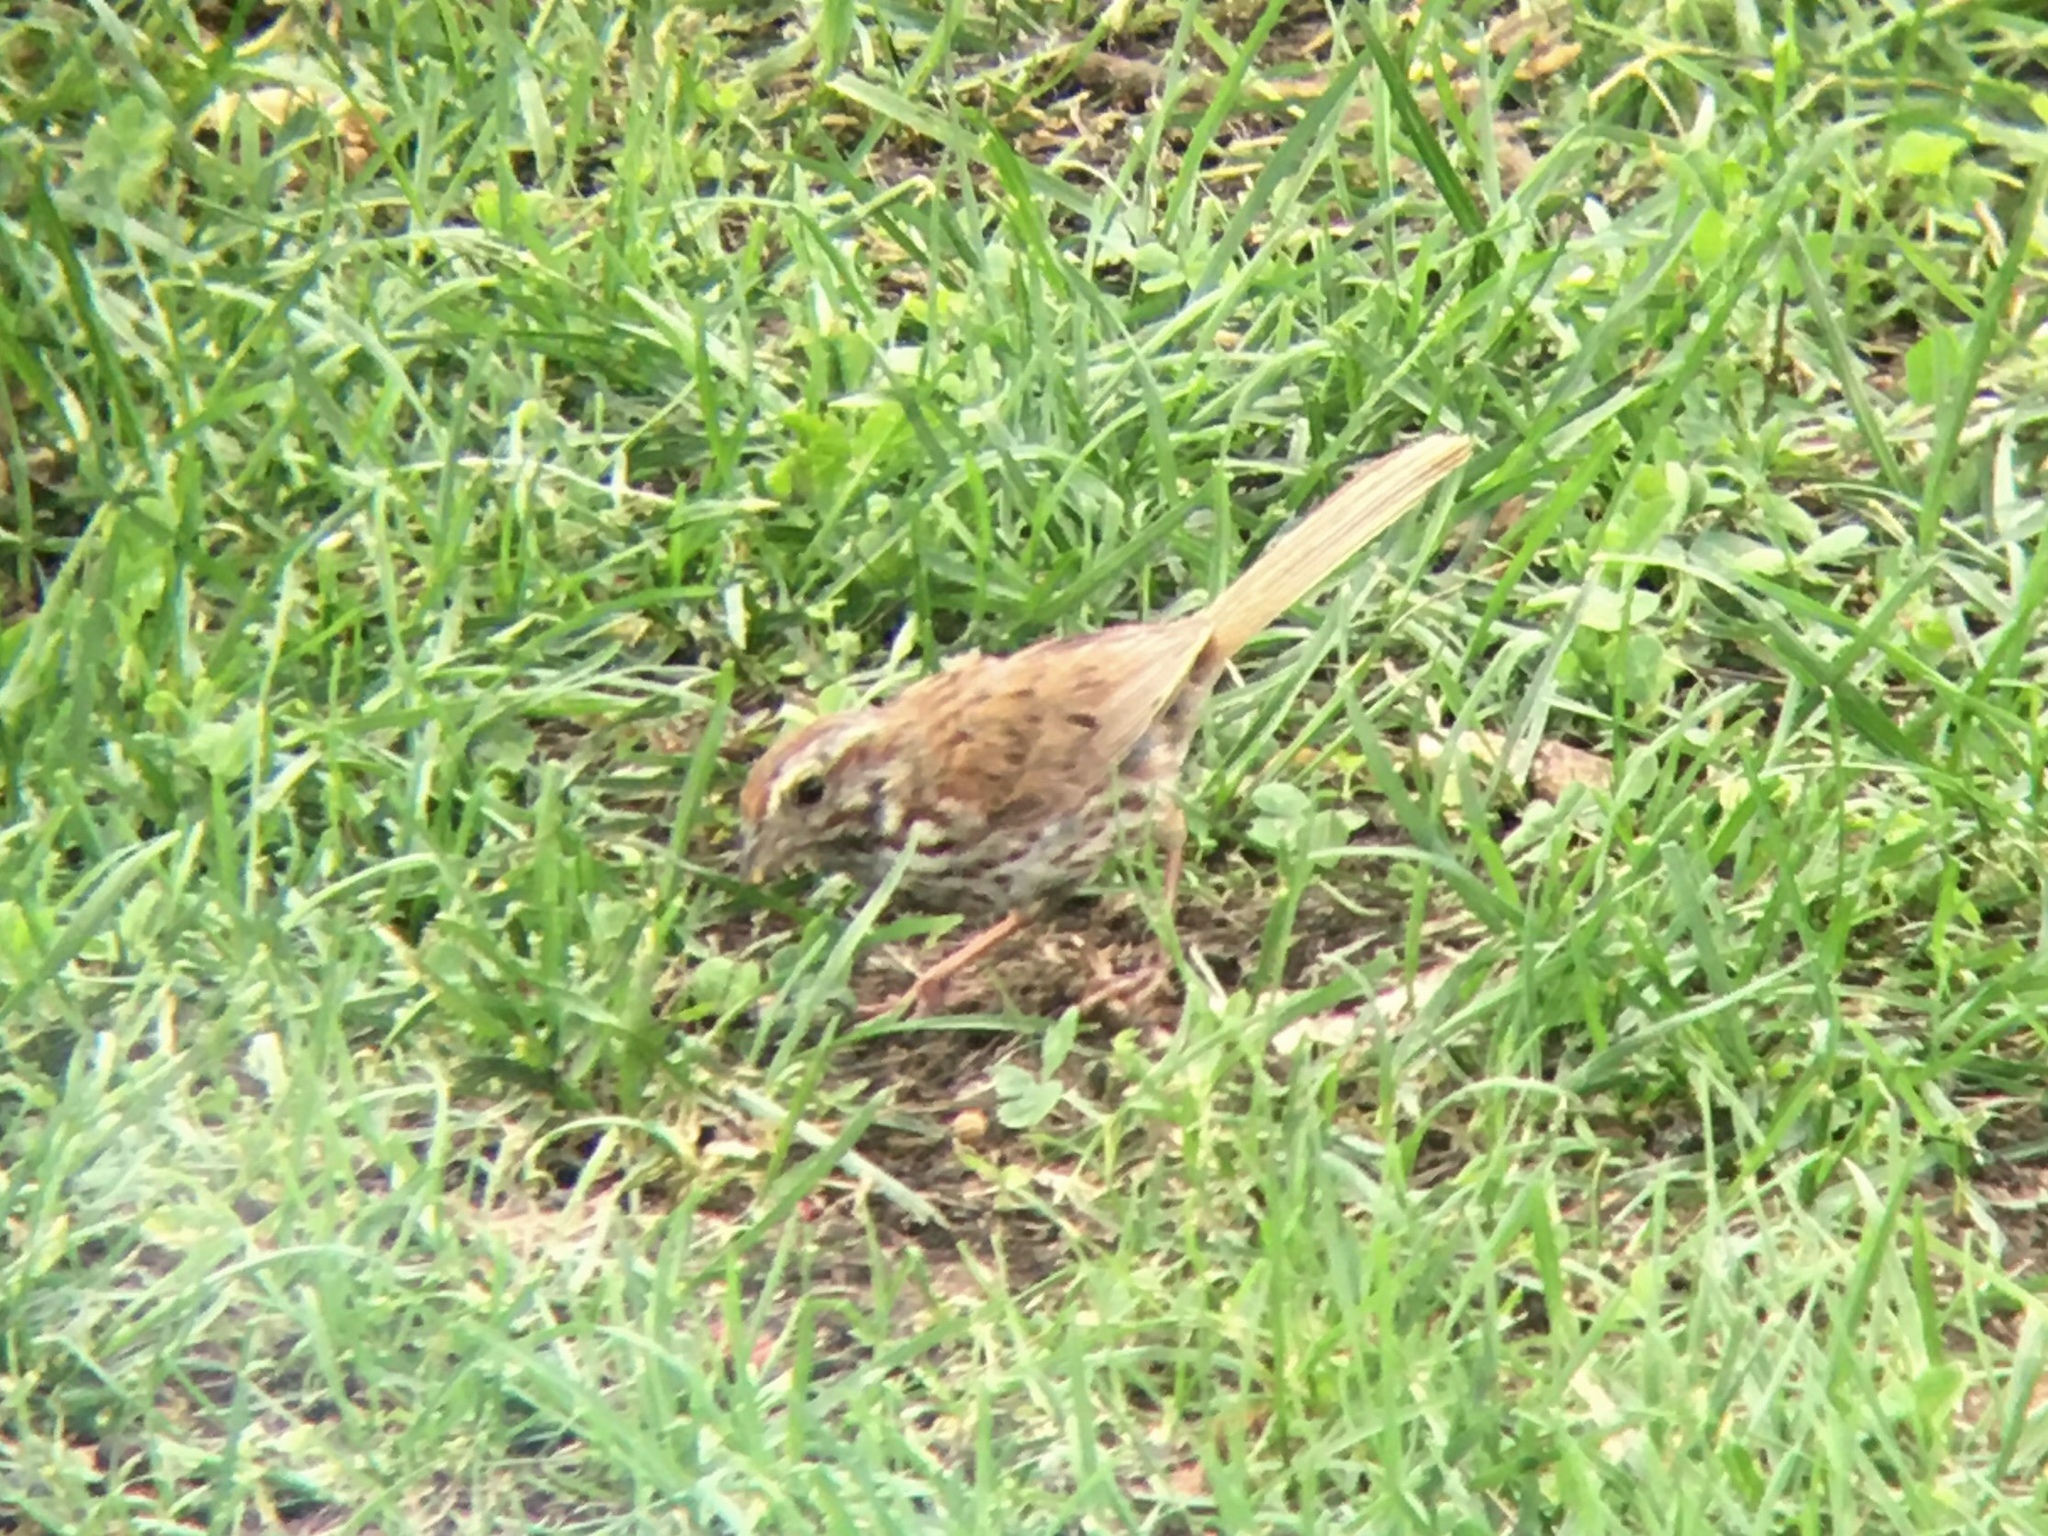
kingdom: Animalia
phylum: Chordata
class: Aves
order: Passeriformes
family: Passerellidae
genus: Melospiza
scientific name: Melospiza melodia
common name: Song sparrow
